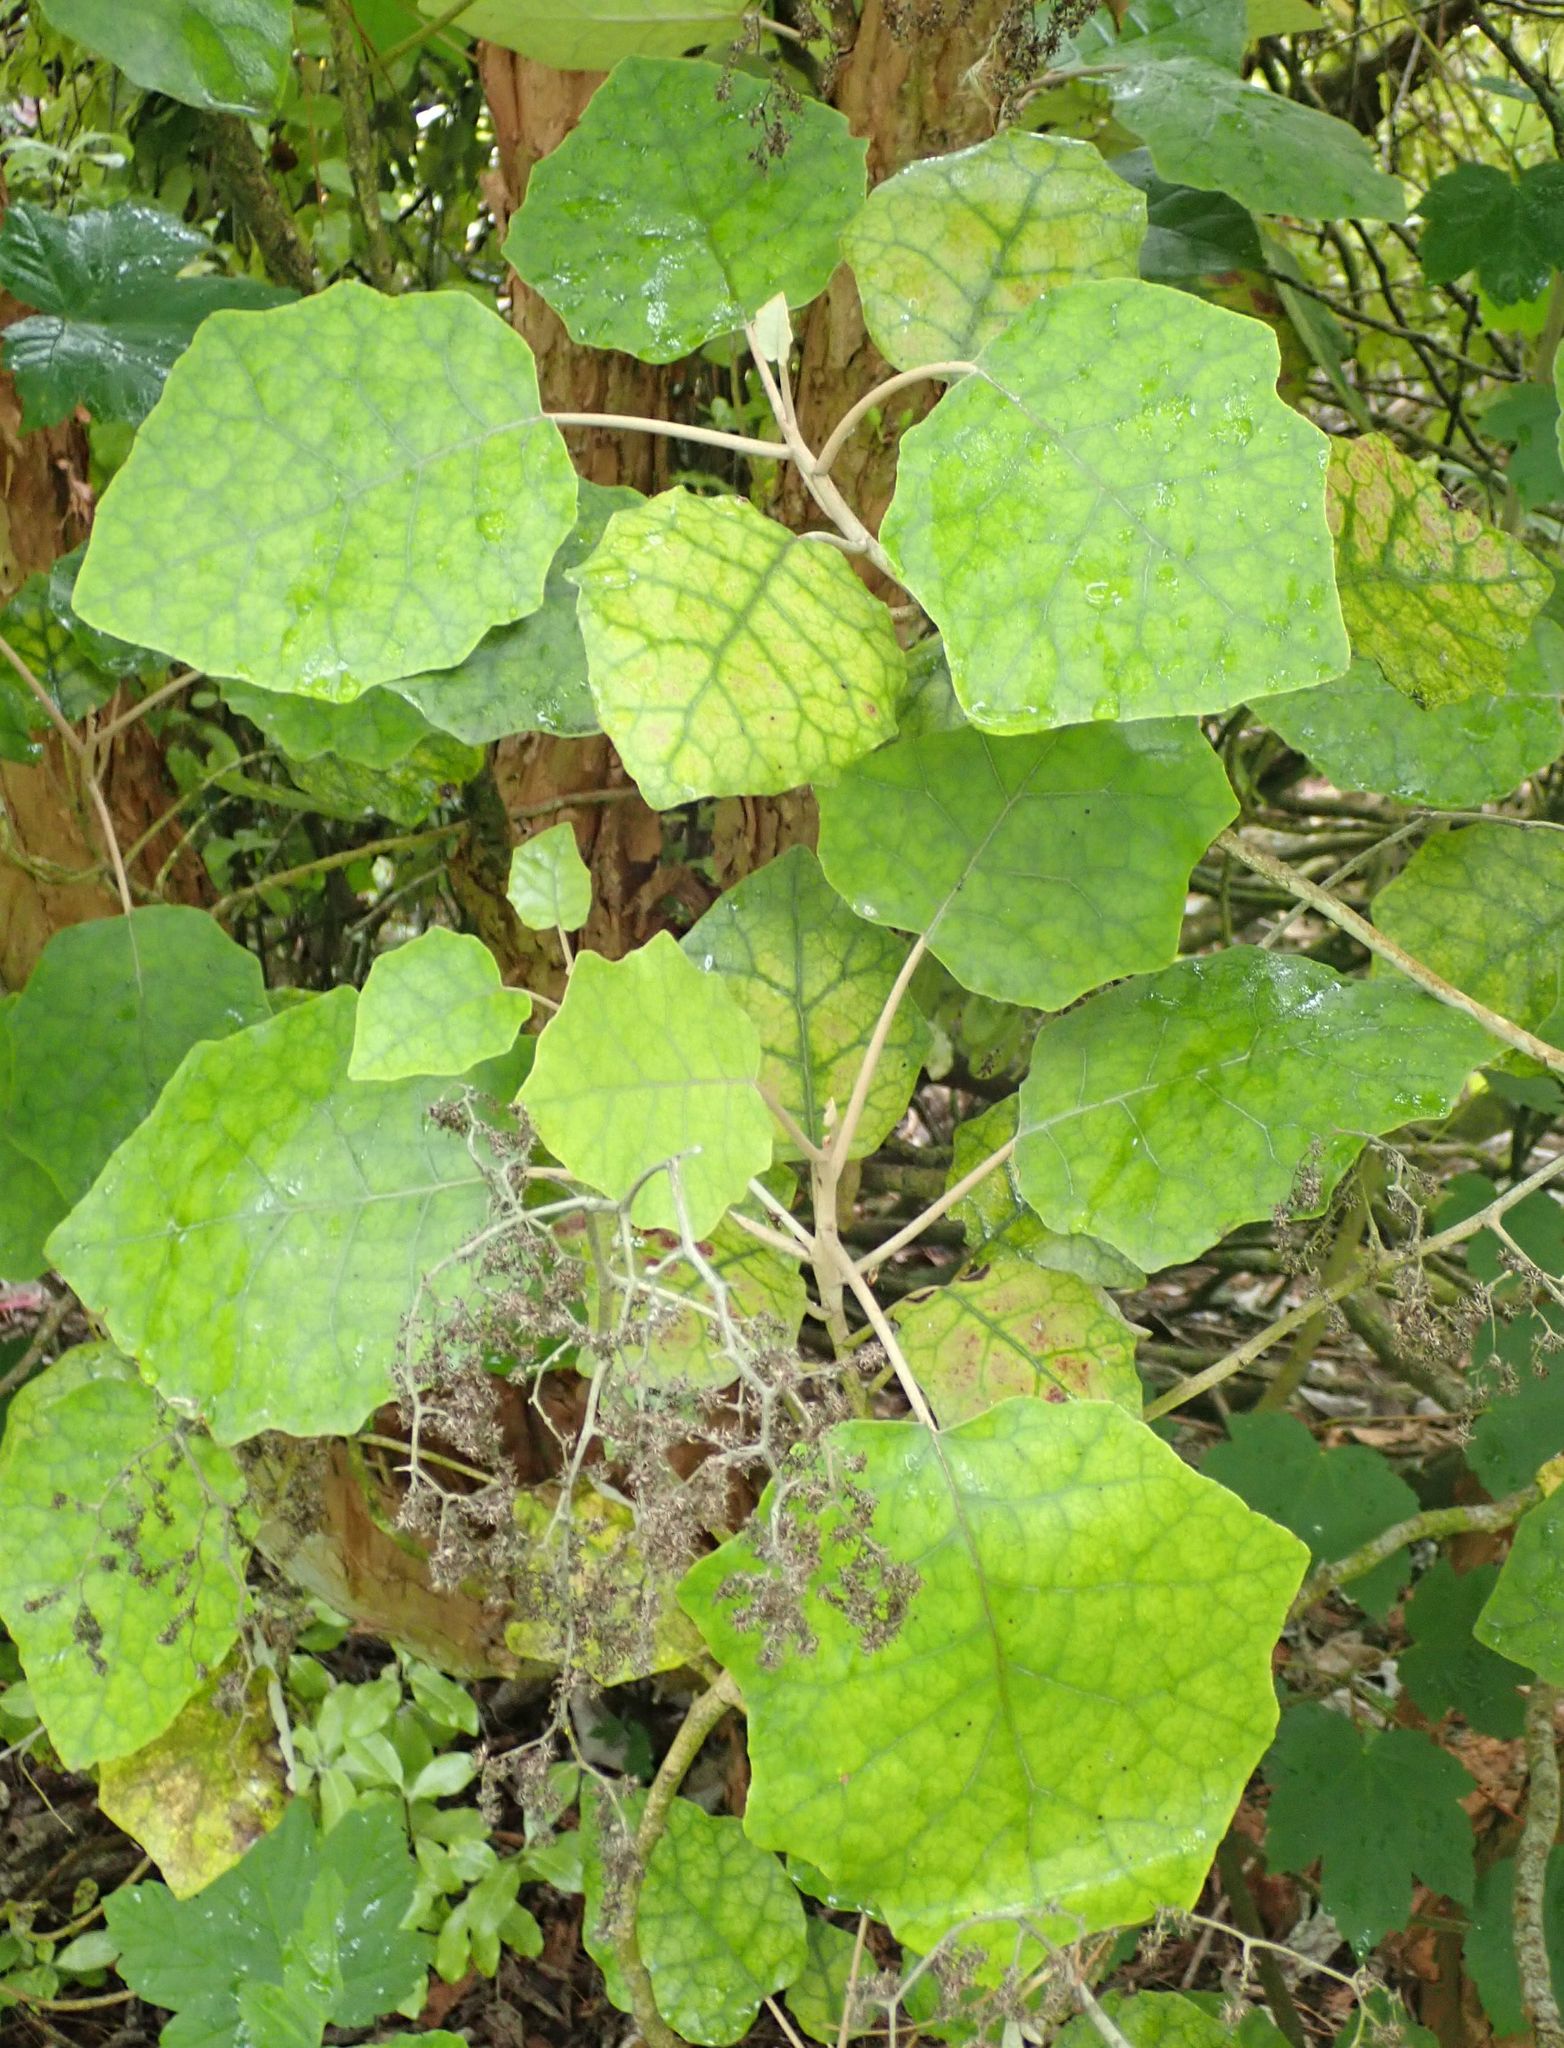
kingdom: Plantae
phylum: Tracheophyta
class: Magnoliopsida
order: Asterales
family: Asteraceae
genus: Brachyglottis
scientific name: Brachyglottis repanda
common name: Hedge ragwort
